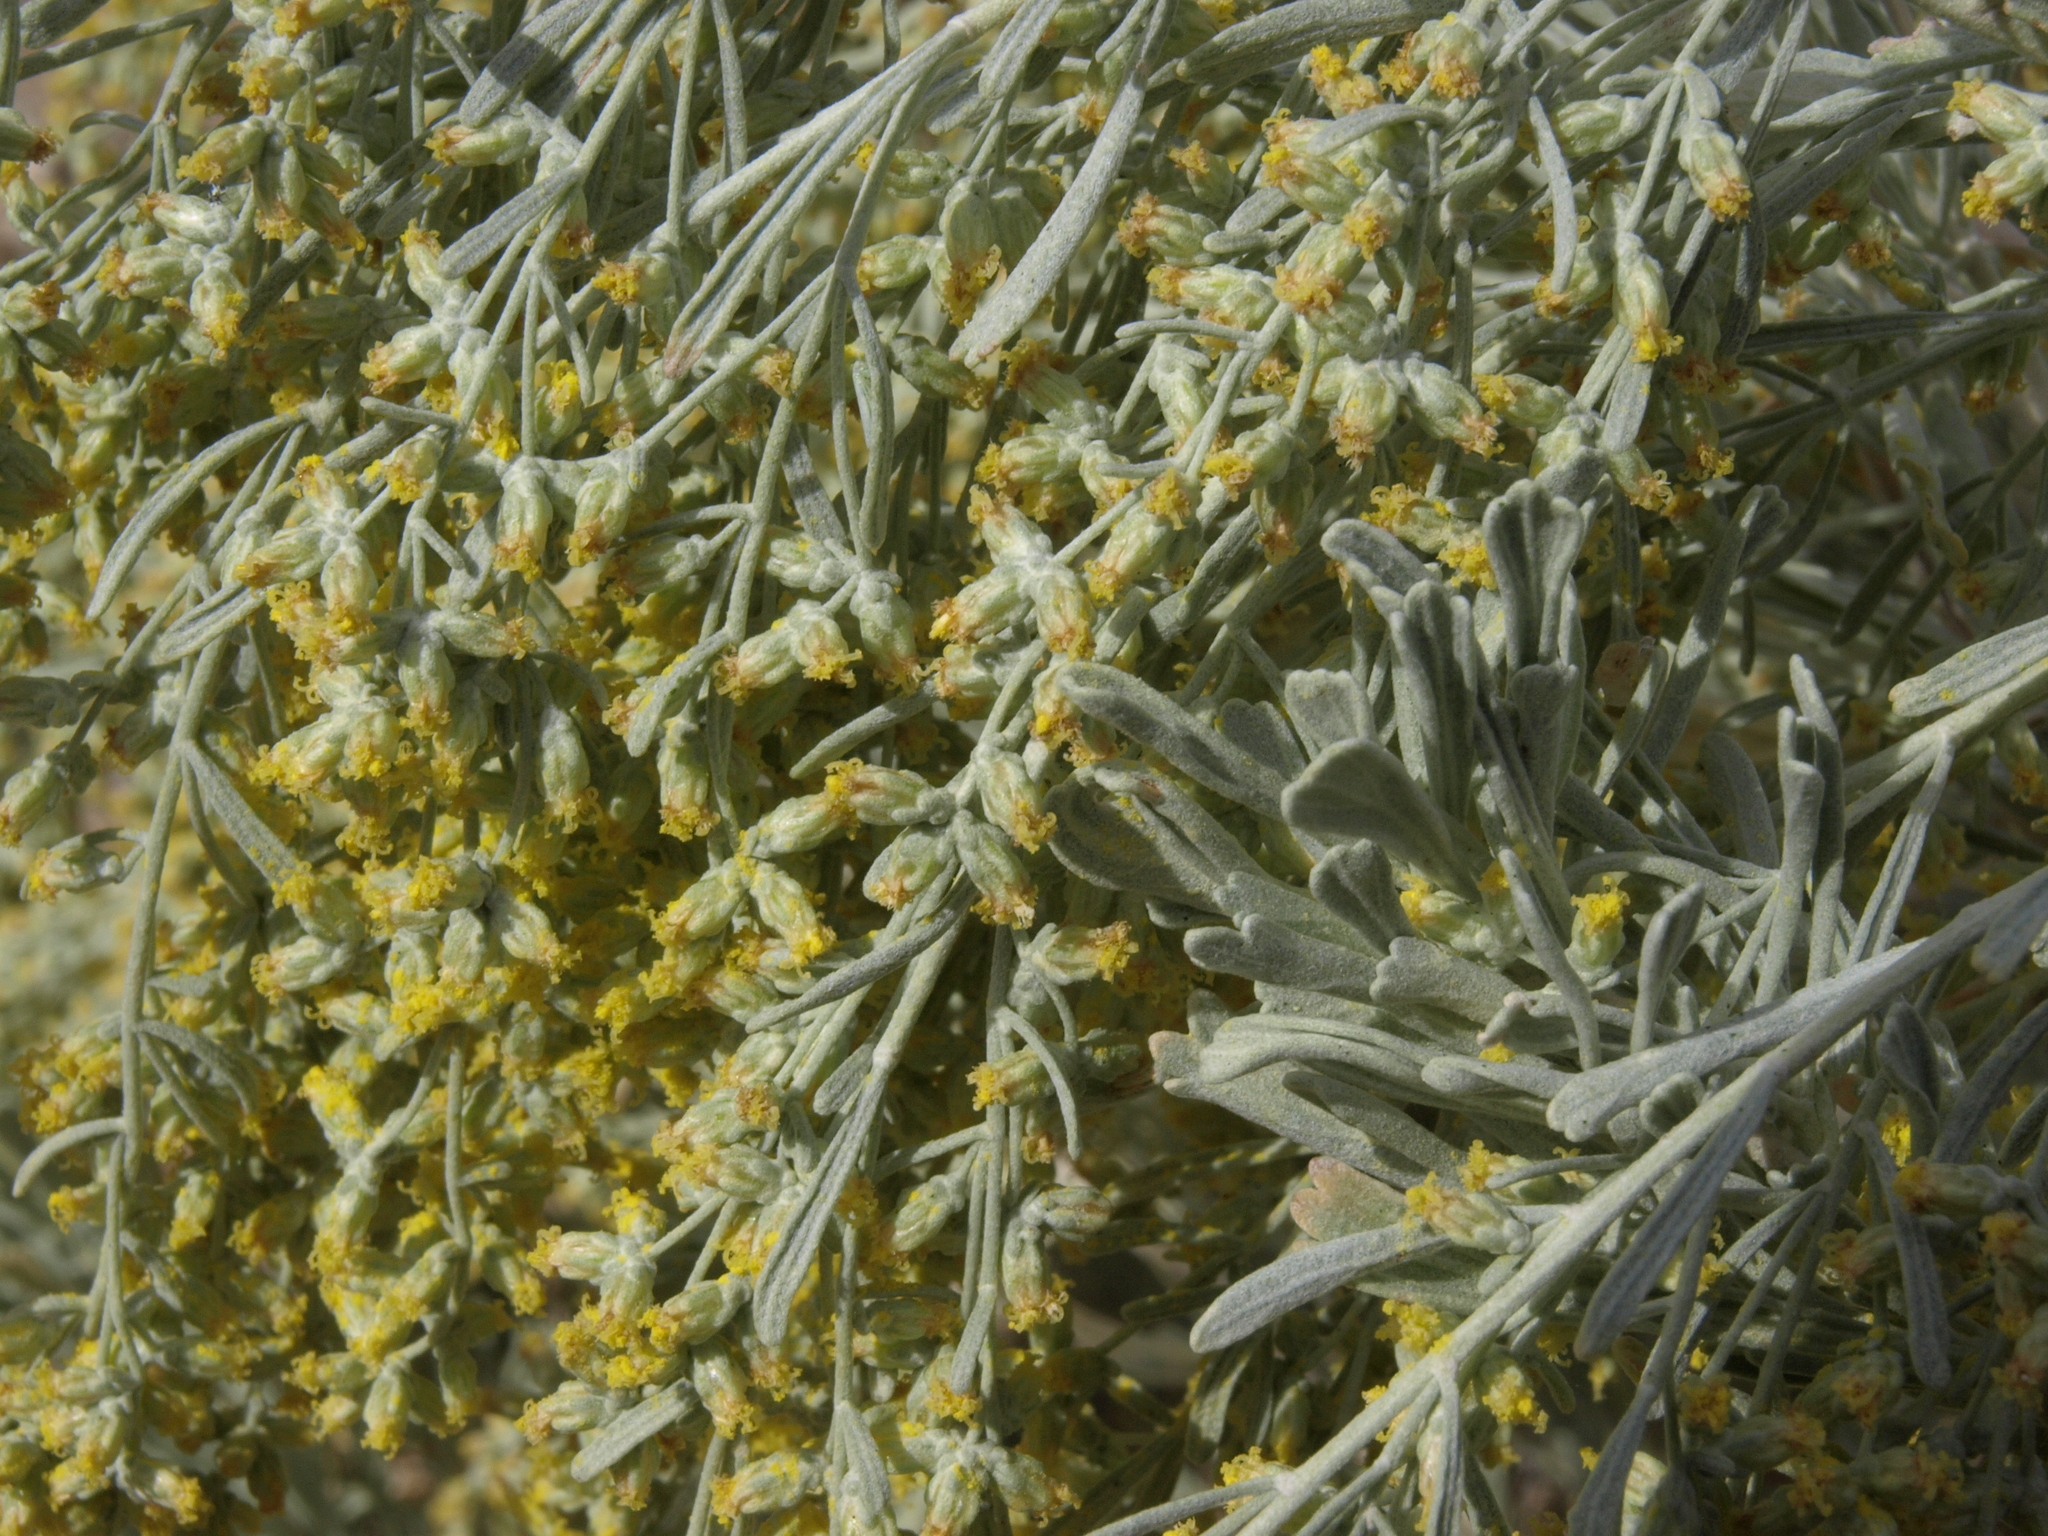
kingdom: Plantae
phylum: Tracheophyta
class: Magnoliopsida
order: Asterales
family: Asteraceae
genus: Artemisia
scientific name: Artemisia tridentata
